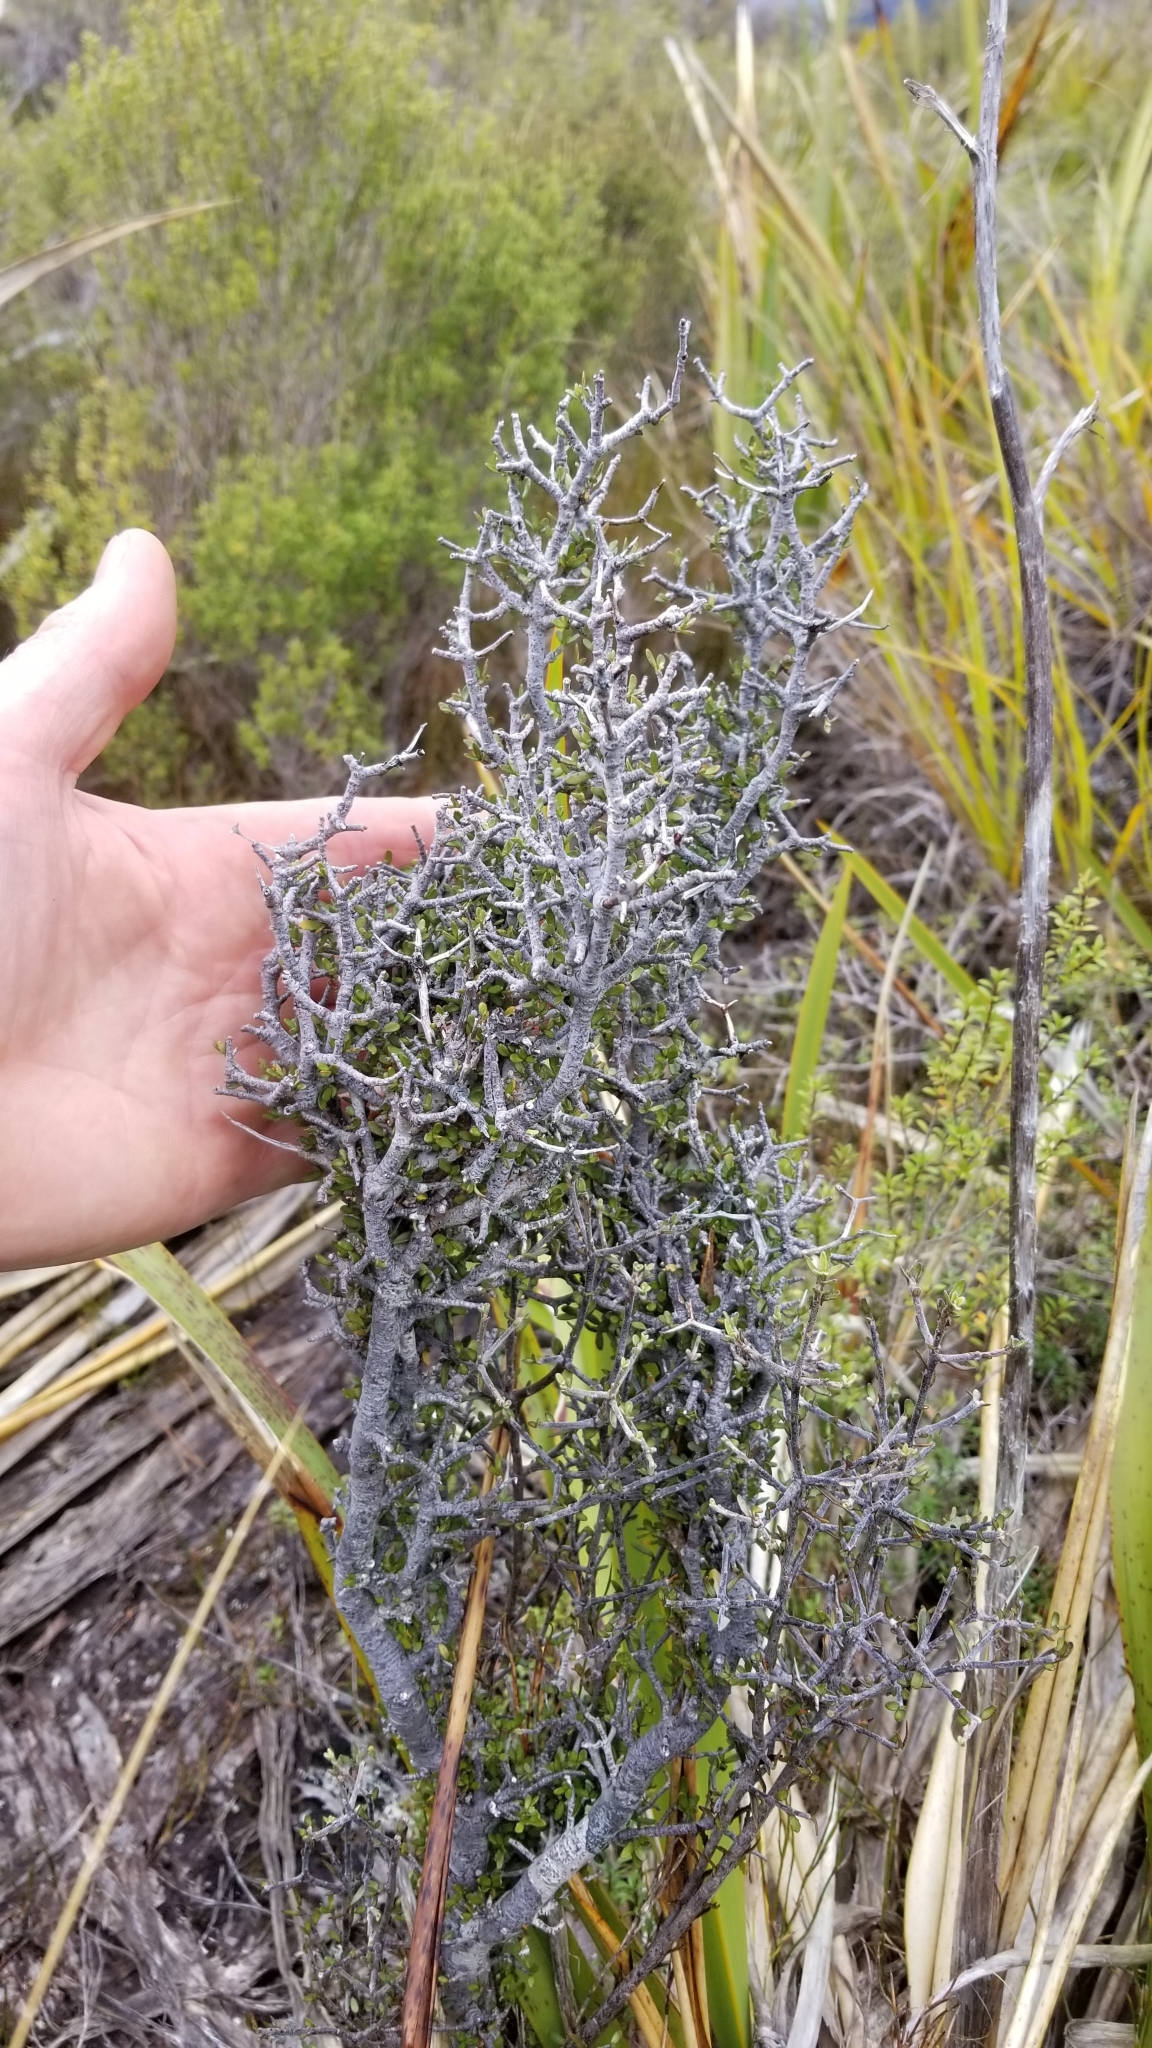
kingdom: Plantae
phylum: Tracheophyta
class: Magnoliopsida
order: Apiales
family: Pittosporaceae
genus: Pittosporum
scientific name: Pittosporum rigidum
